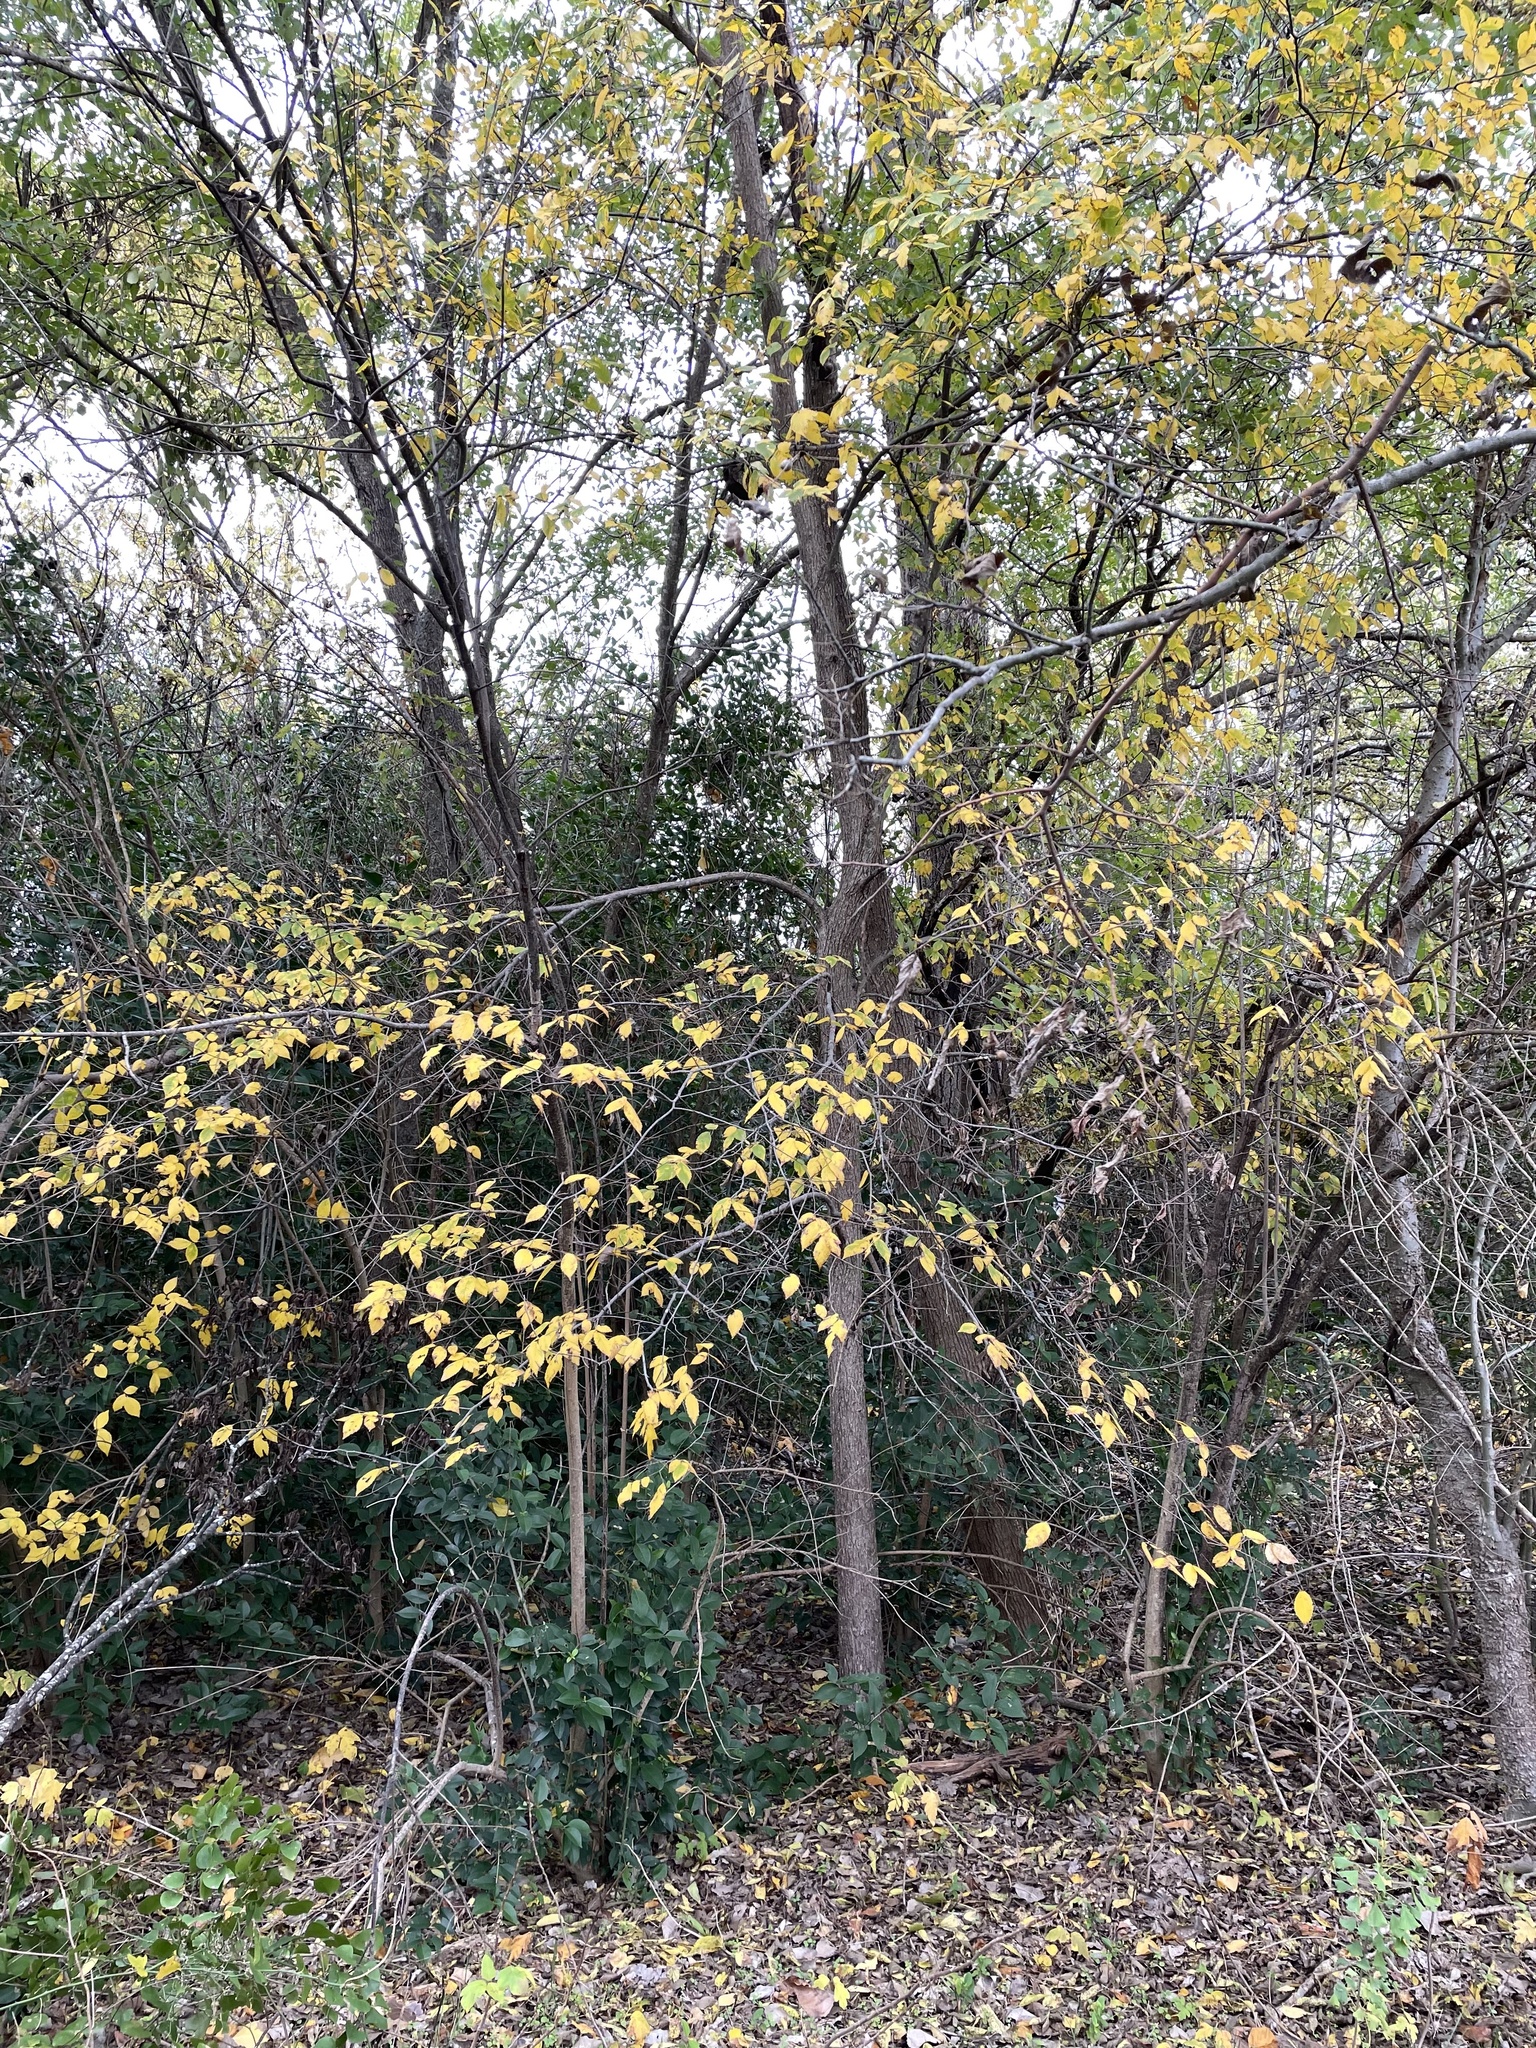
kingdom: Plantae
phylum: Tracheophyta
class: Magnoliopsida
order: Rosales
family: Ulmaceae
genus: Ulmus
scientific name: Ulmus americana
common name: American elm
